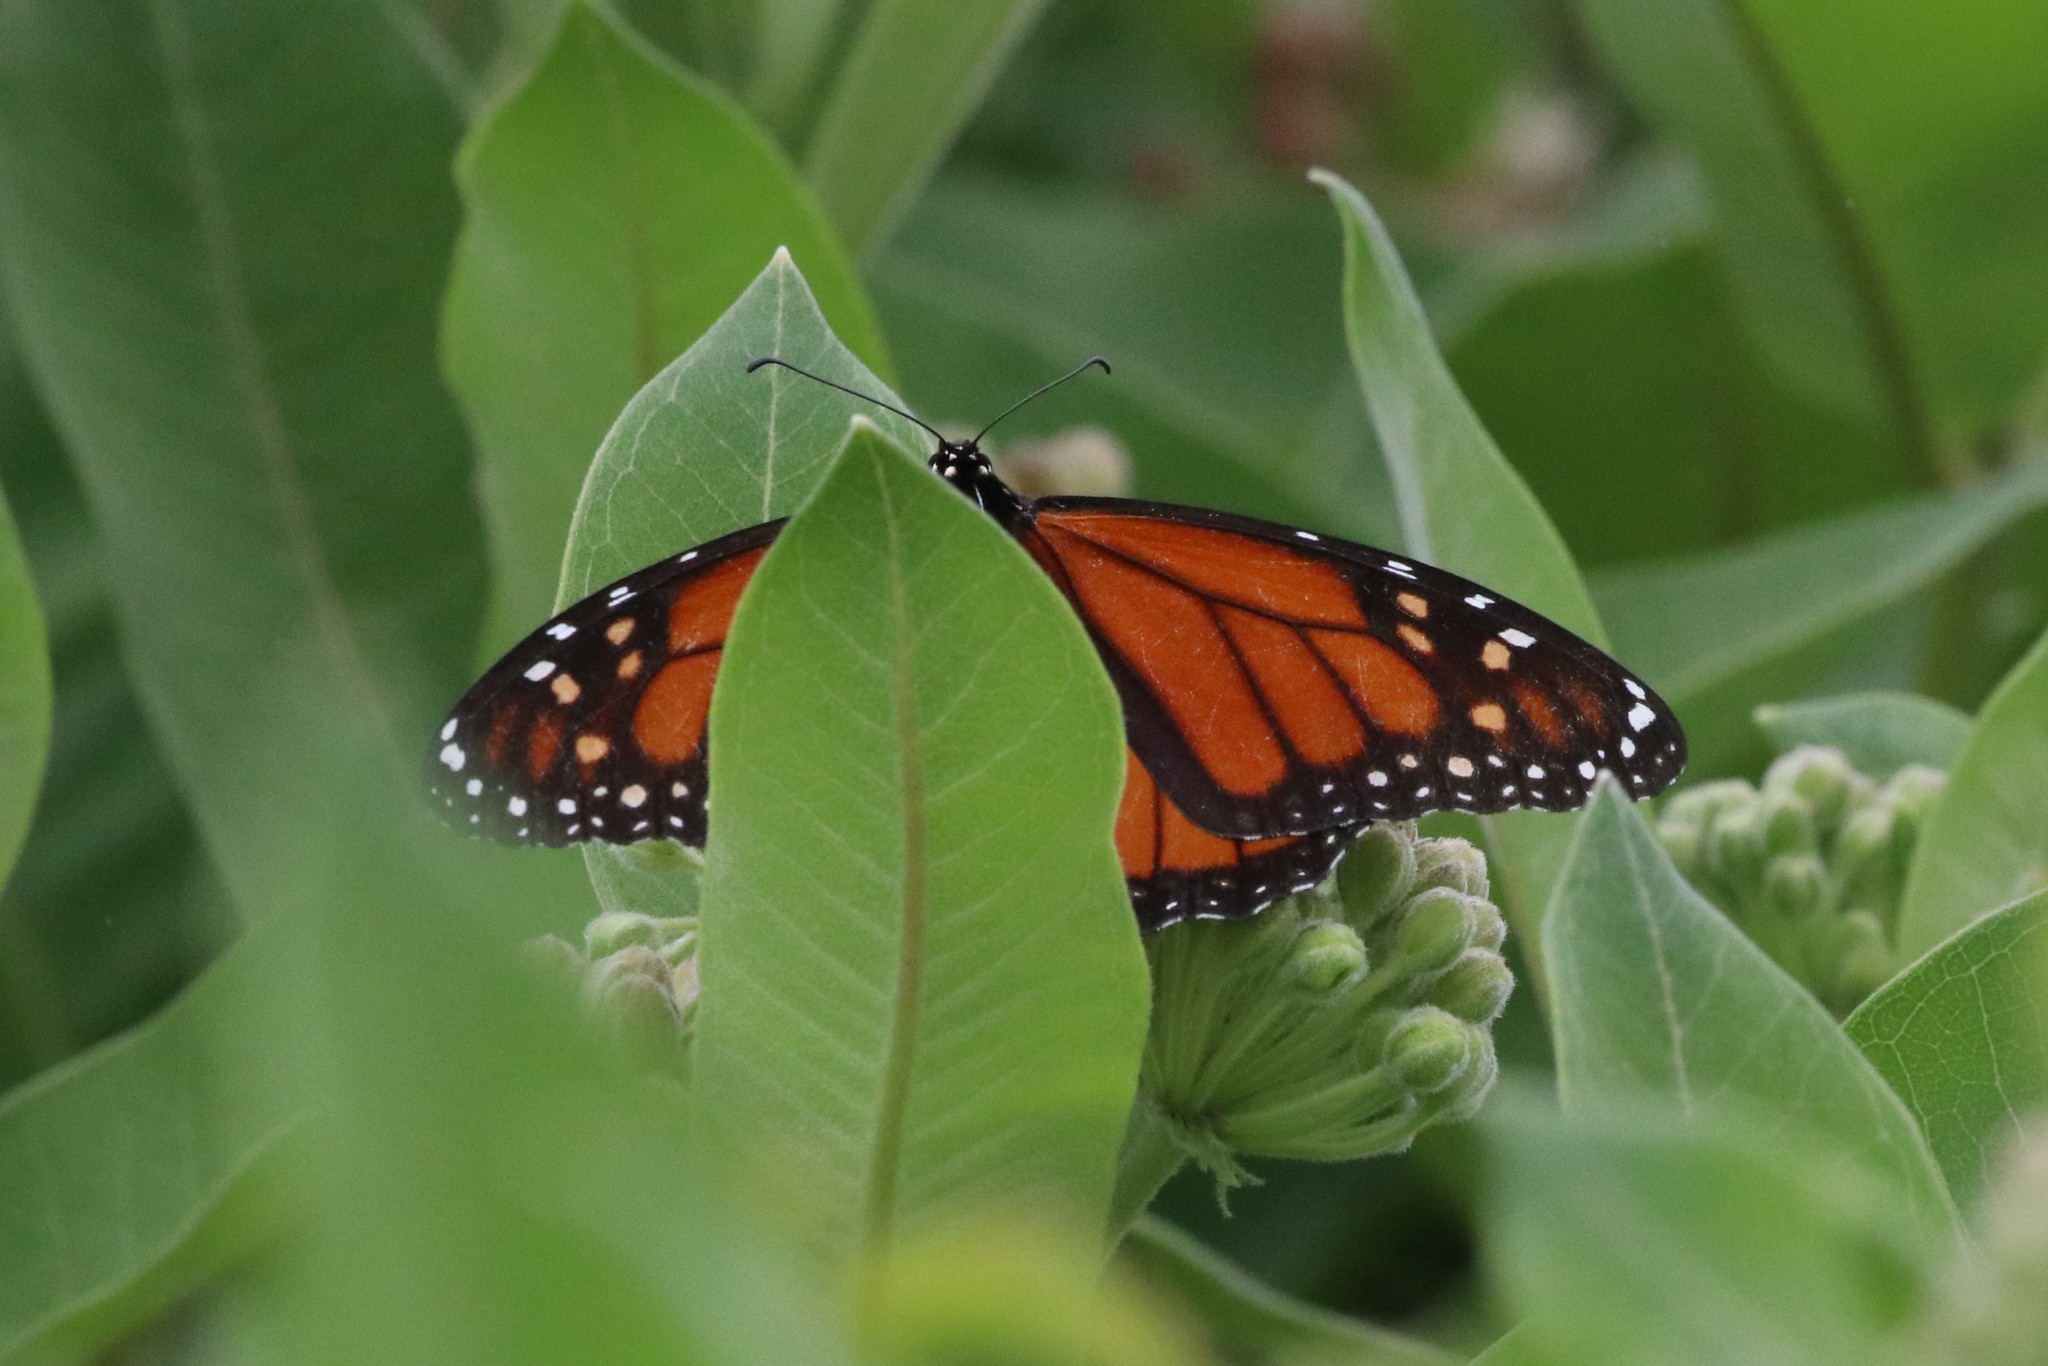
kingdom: Animalia
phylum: Arthropoda
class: Insecta
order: Lepidoptera
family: Nymphalidae
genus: Danaus
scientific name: Danaus plexippus
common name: Monarch
